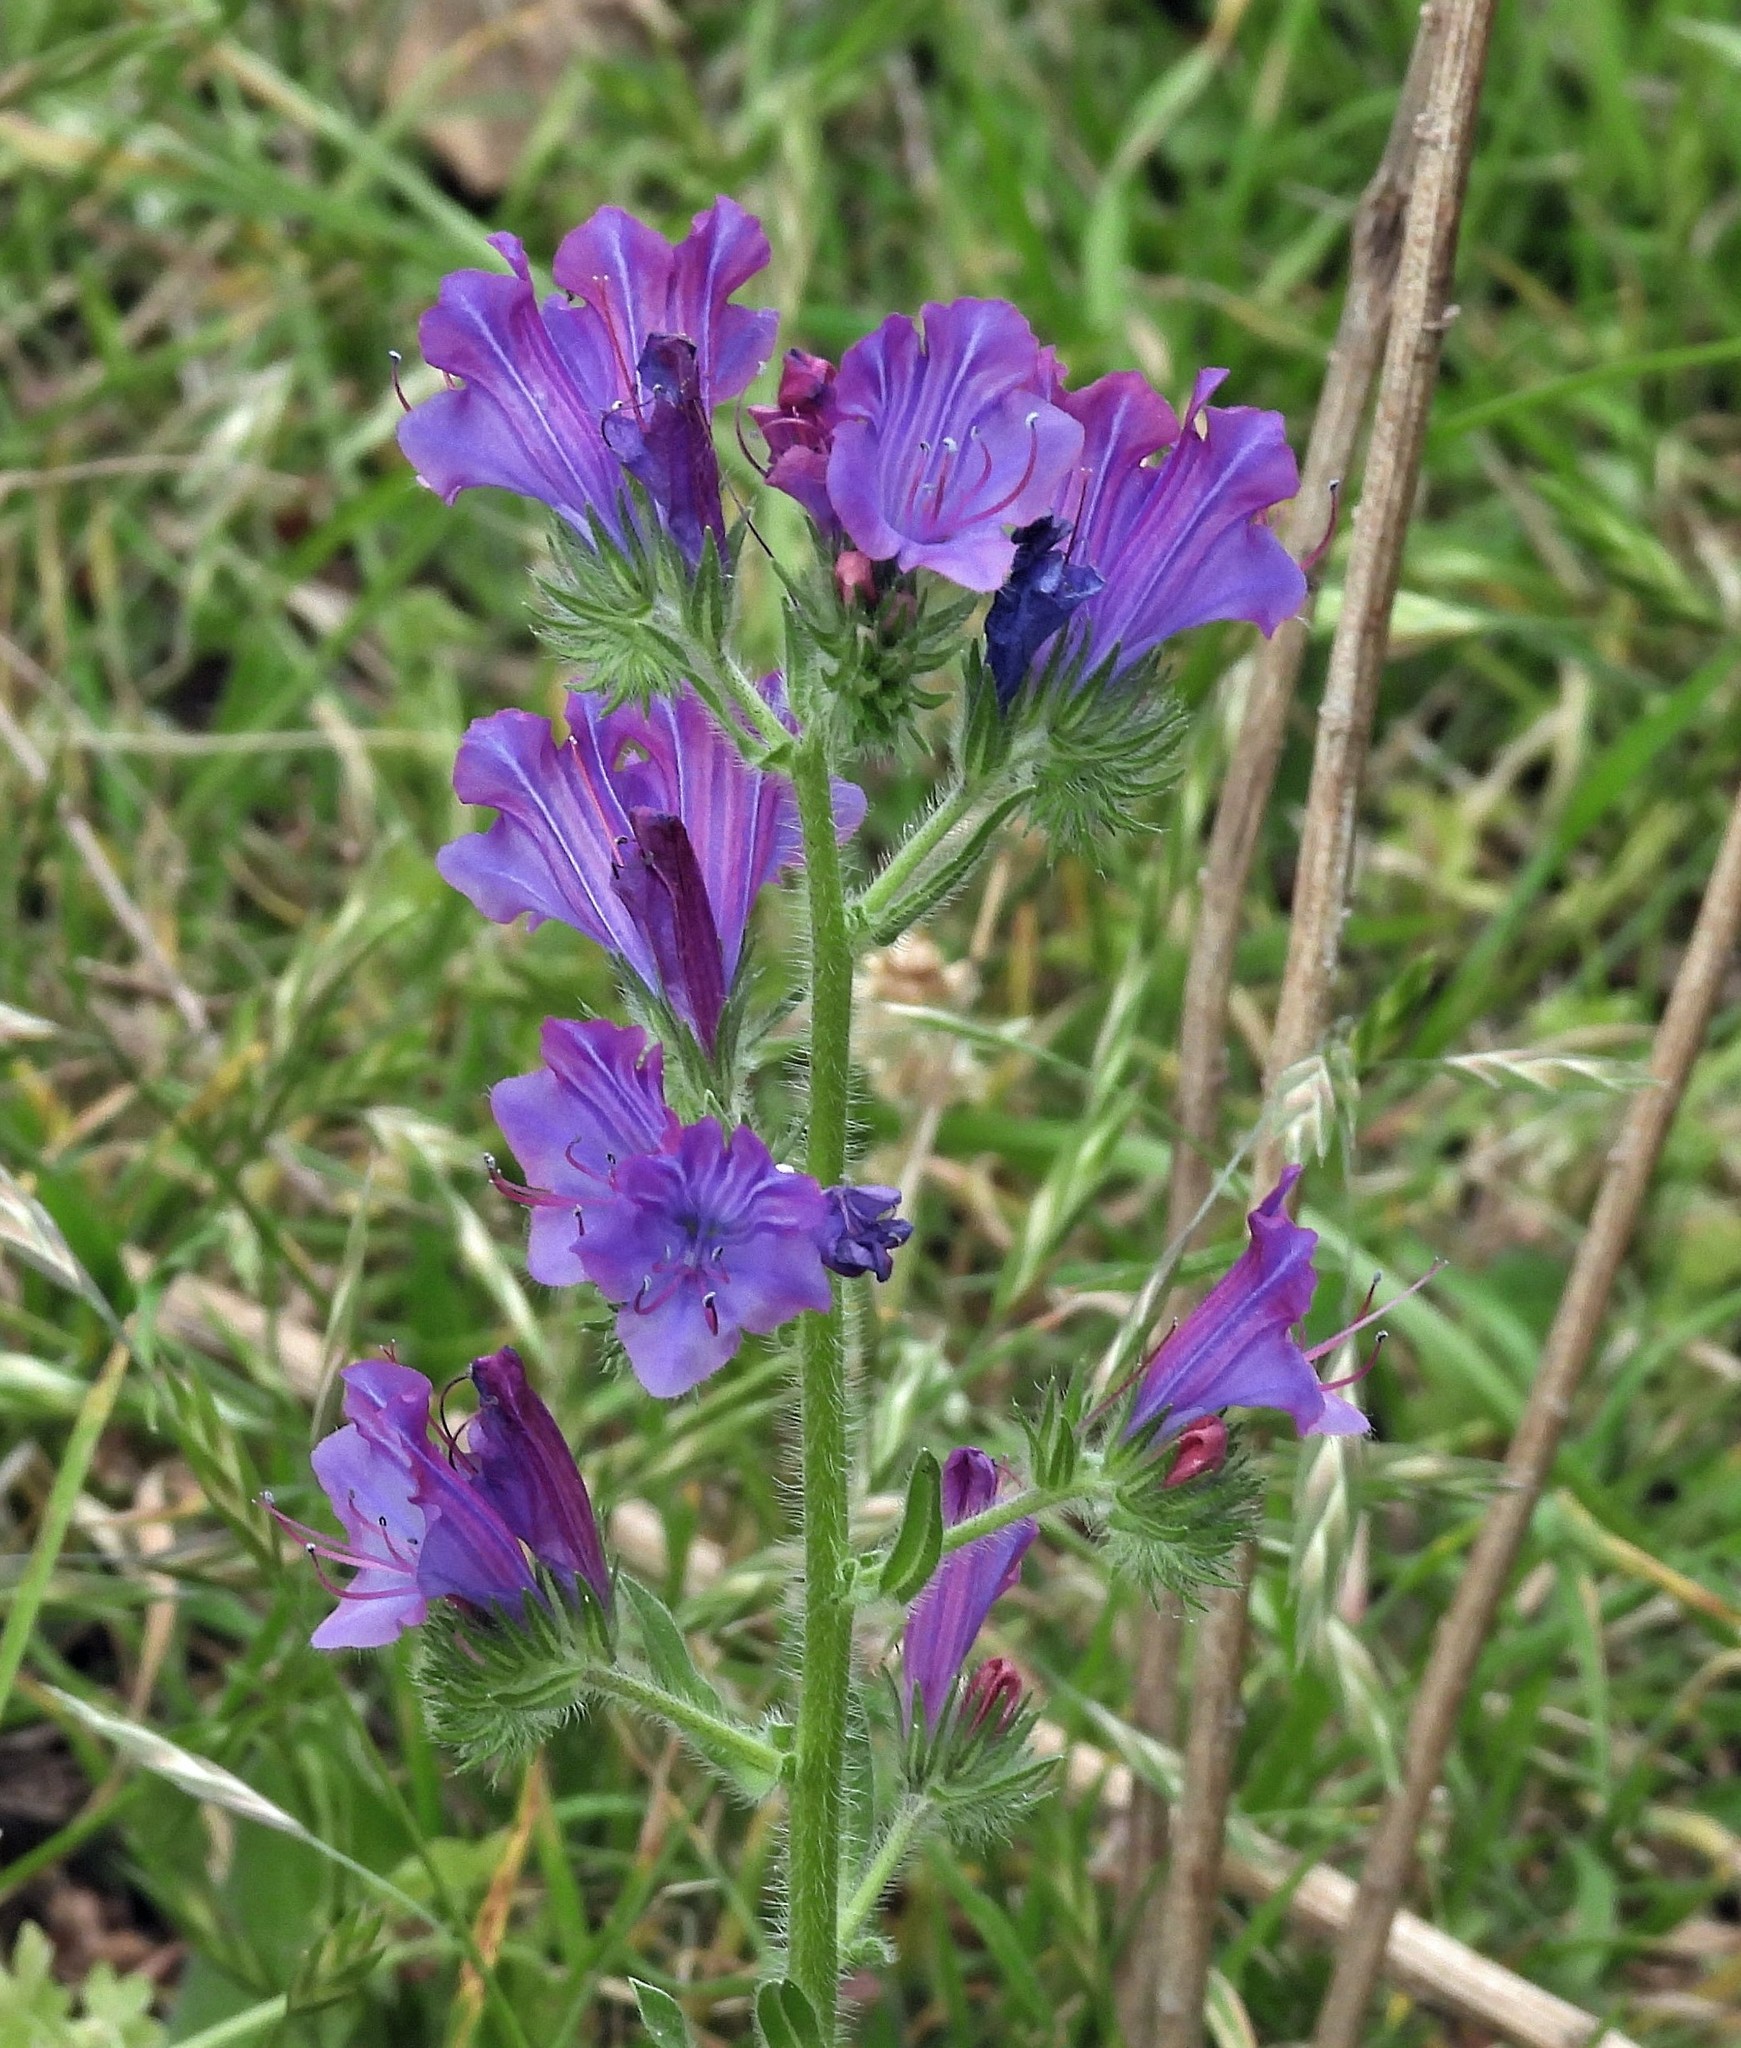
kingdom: Plantae
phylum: Tracheophyta
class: Magnoliopsida
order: Boraginales
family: Boraginaceae
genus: Echium
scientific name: Echium plantagineum
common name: Purple viper's-bugloss
